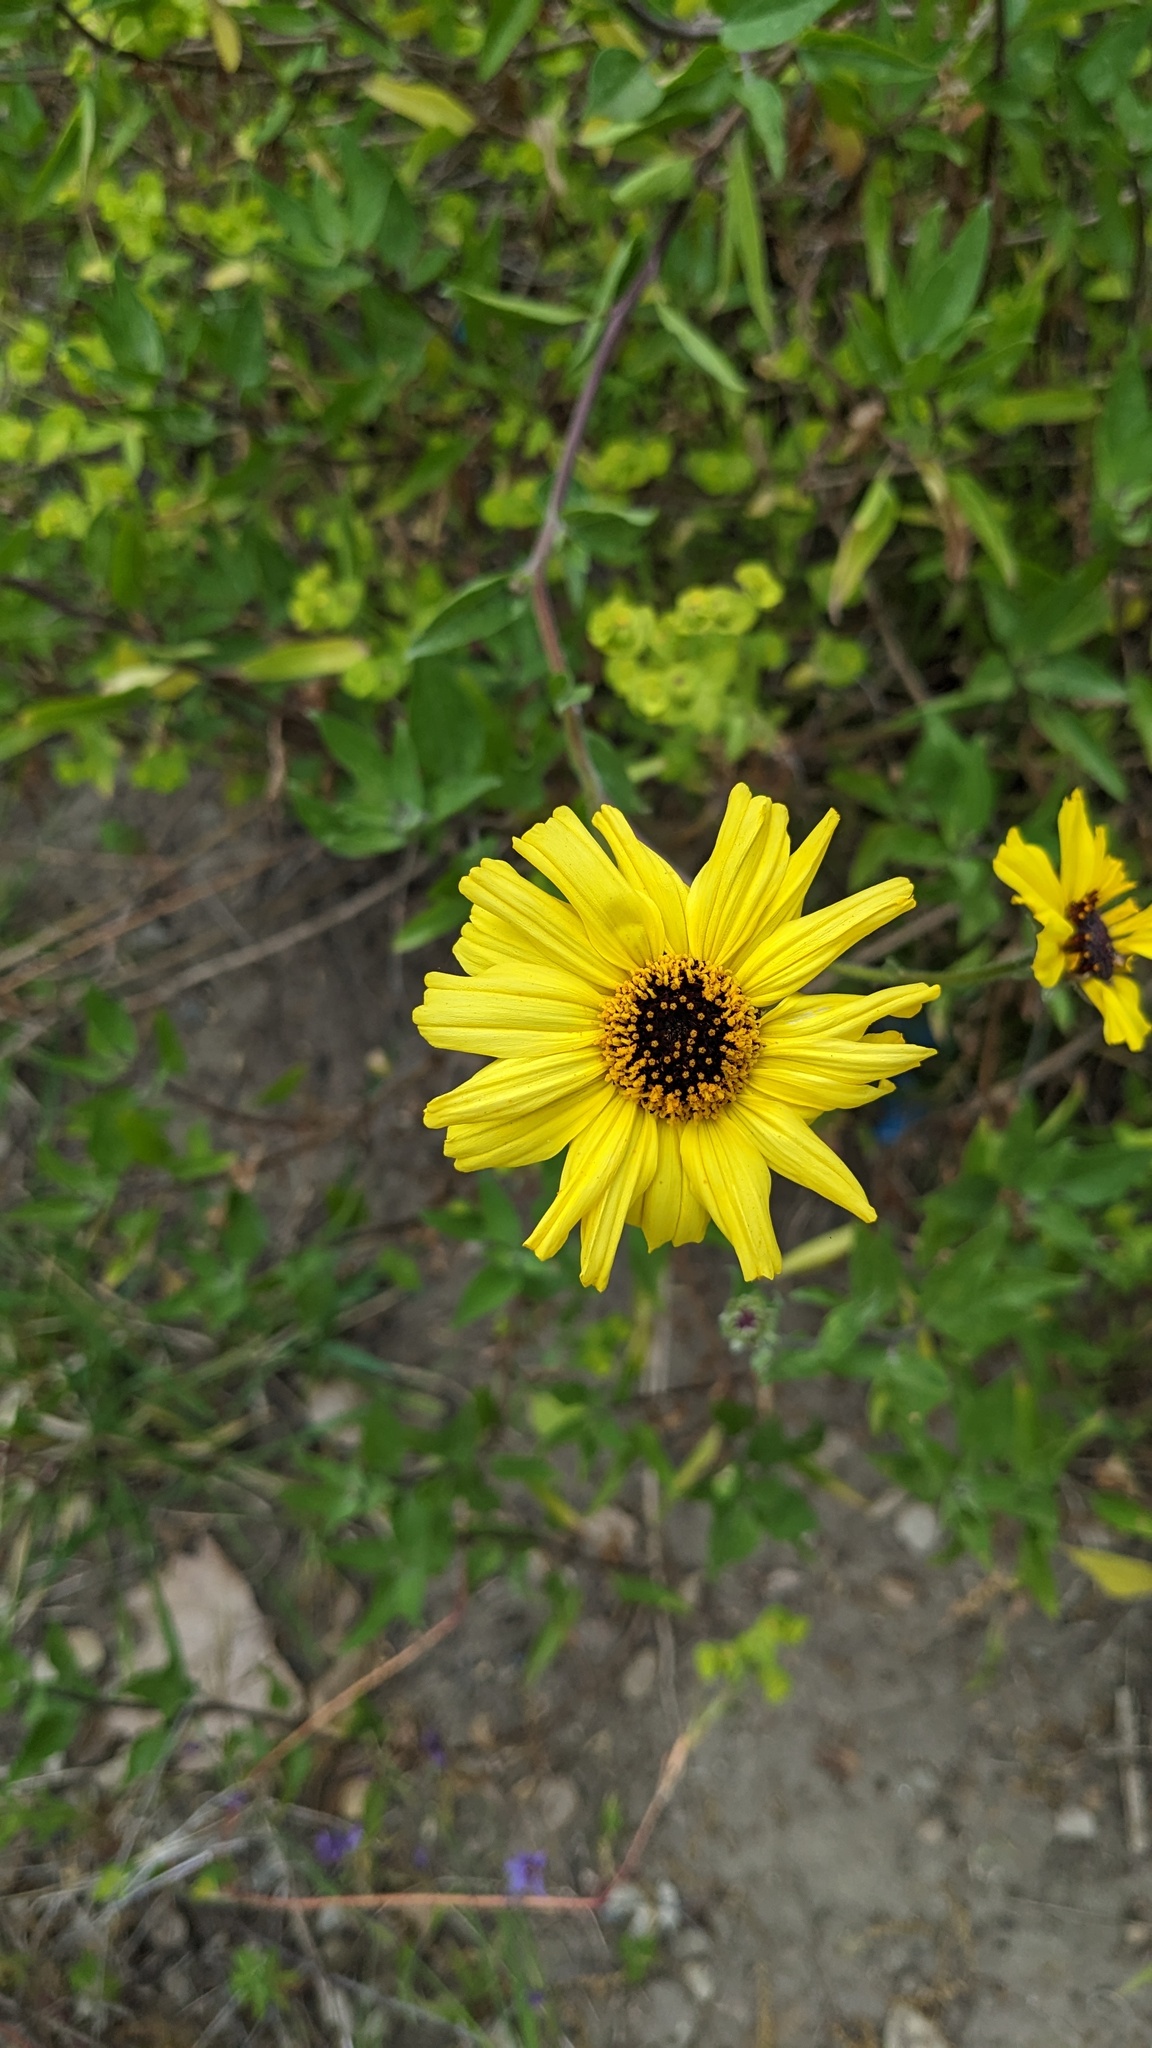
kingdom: Plantae
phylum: Tracheophyta
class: Magnoliopsida
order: Asterales
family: Asteraceae
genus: Encelia
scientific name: Encelia californica
